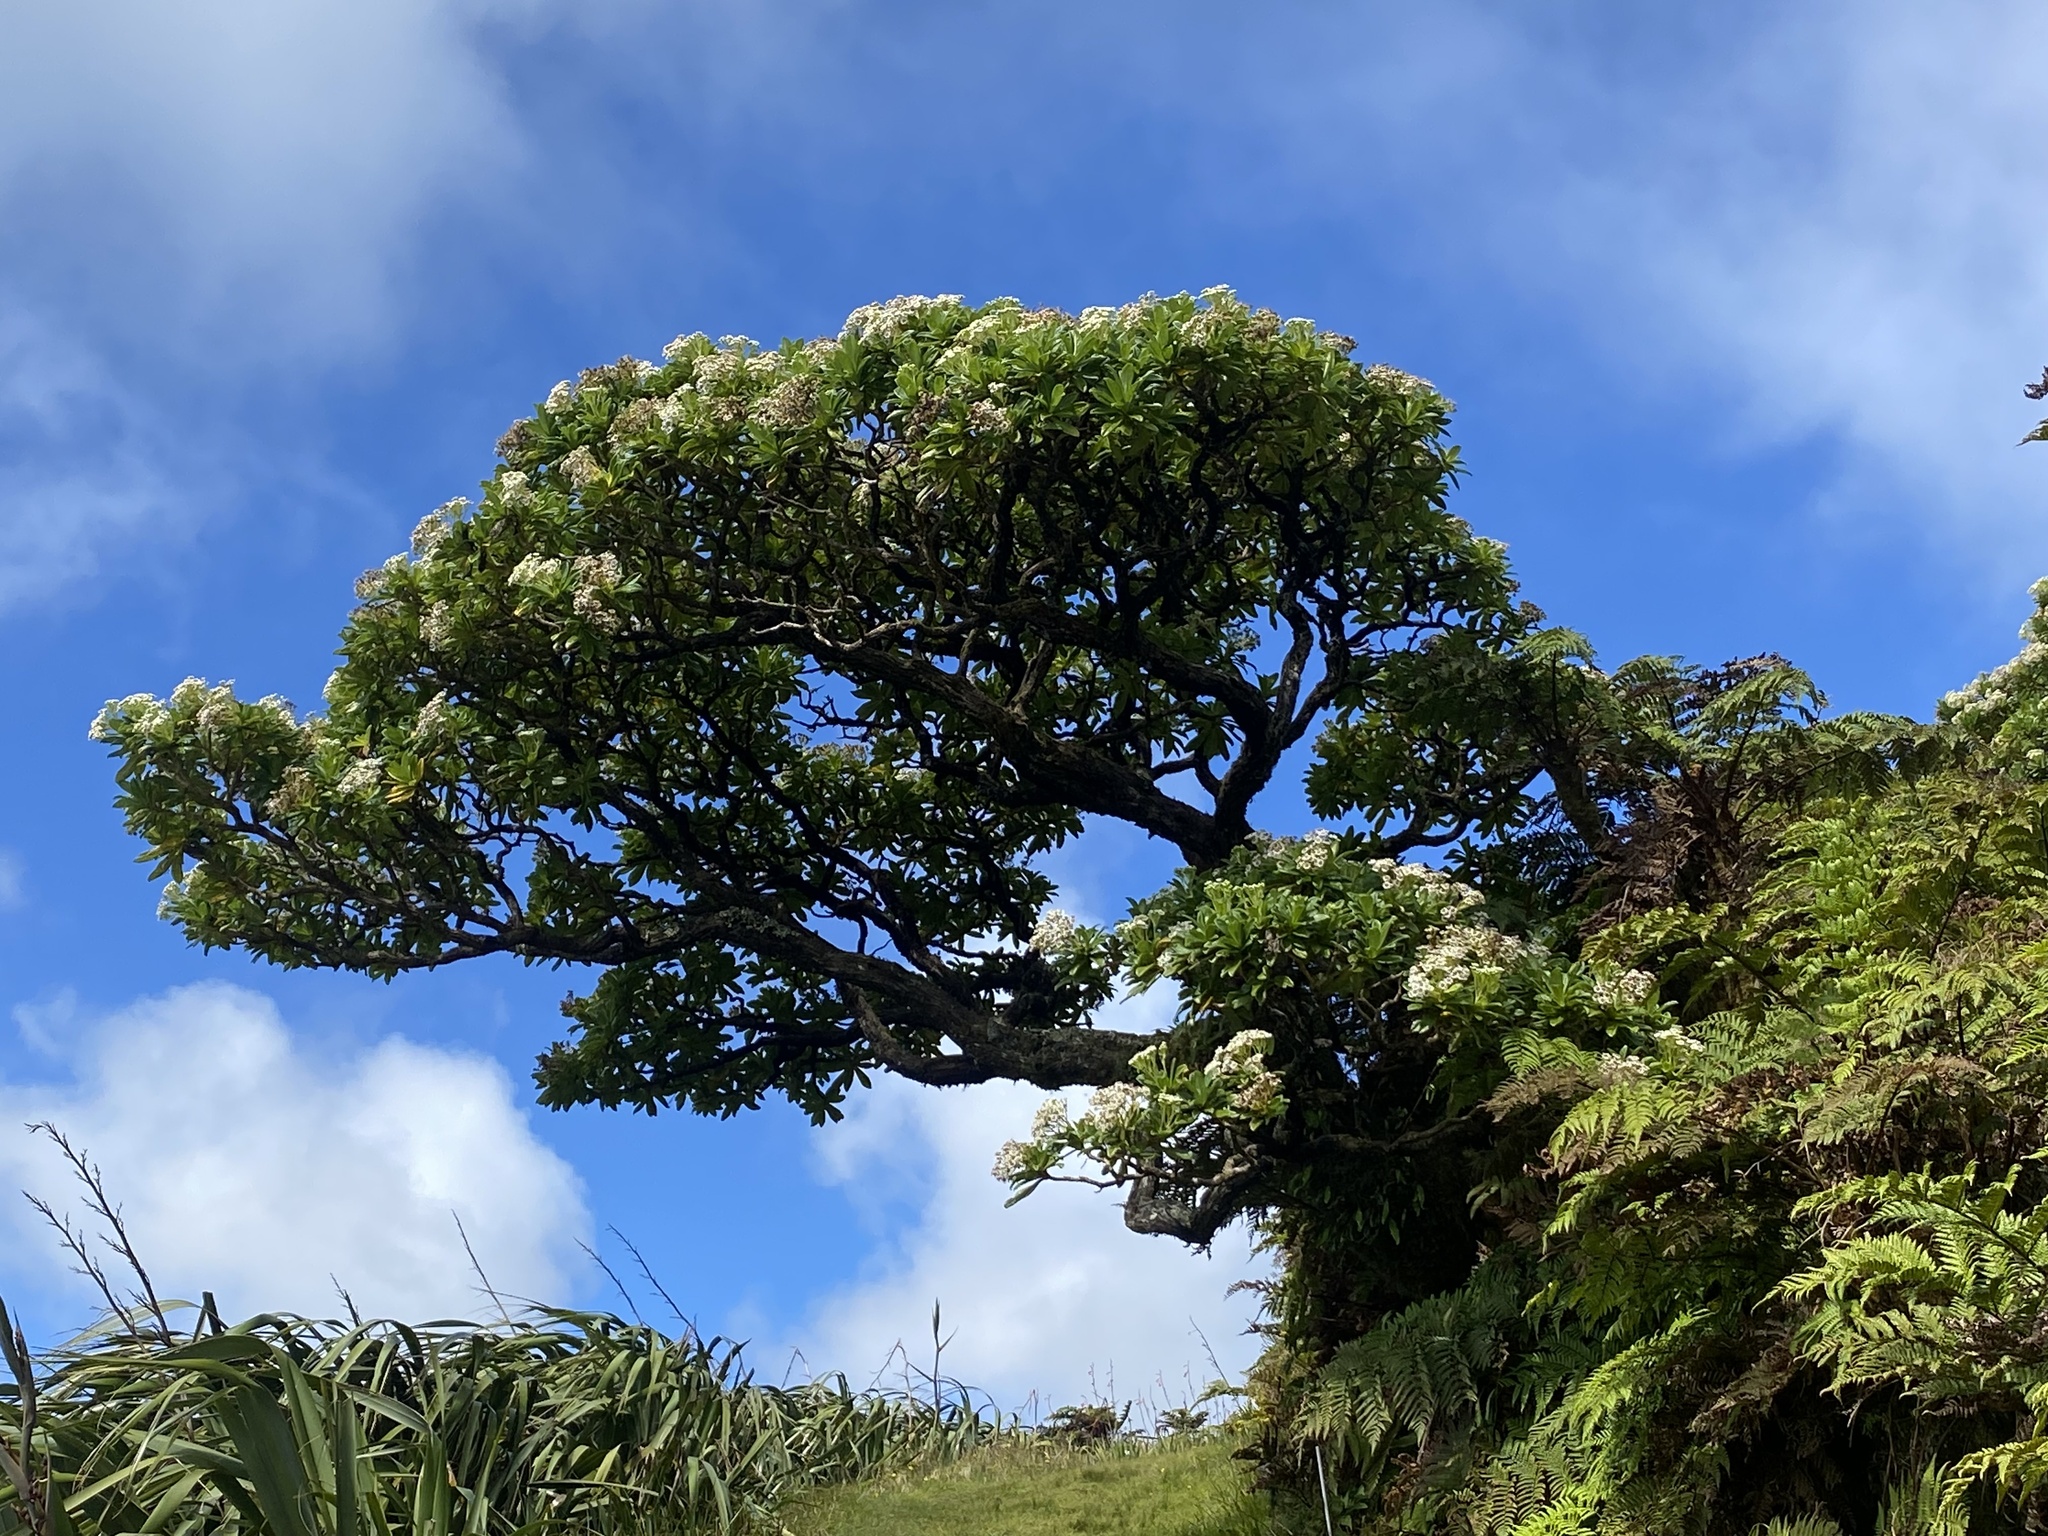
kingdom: Plantae
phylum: Tracheophyta
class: Magnoliopsida
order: Asterales
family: Asteraceae
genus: Melanodendron
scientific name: Melanodendron integrifolium
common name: Black cabbage tree
